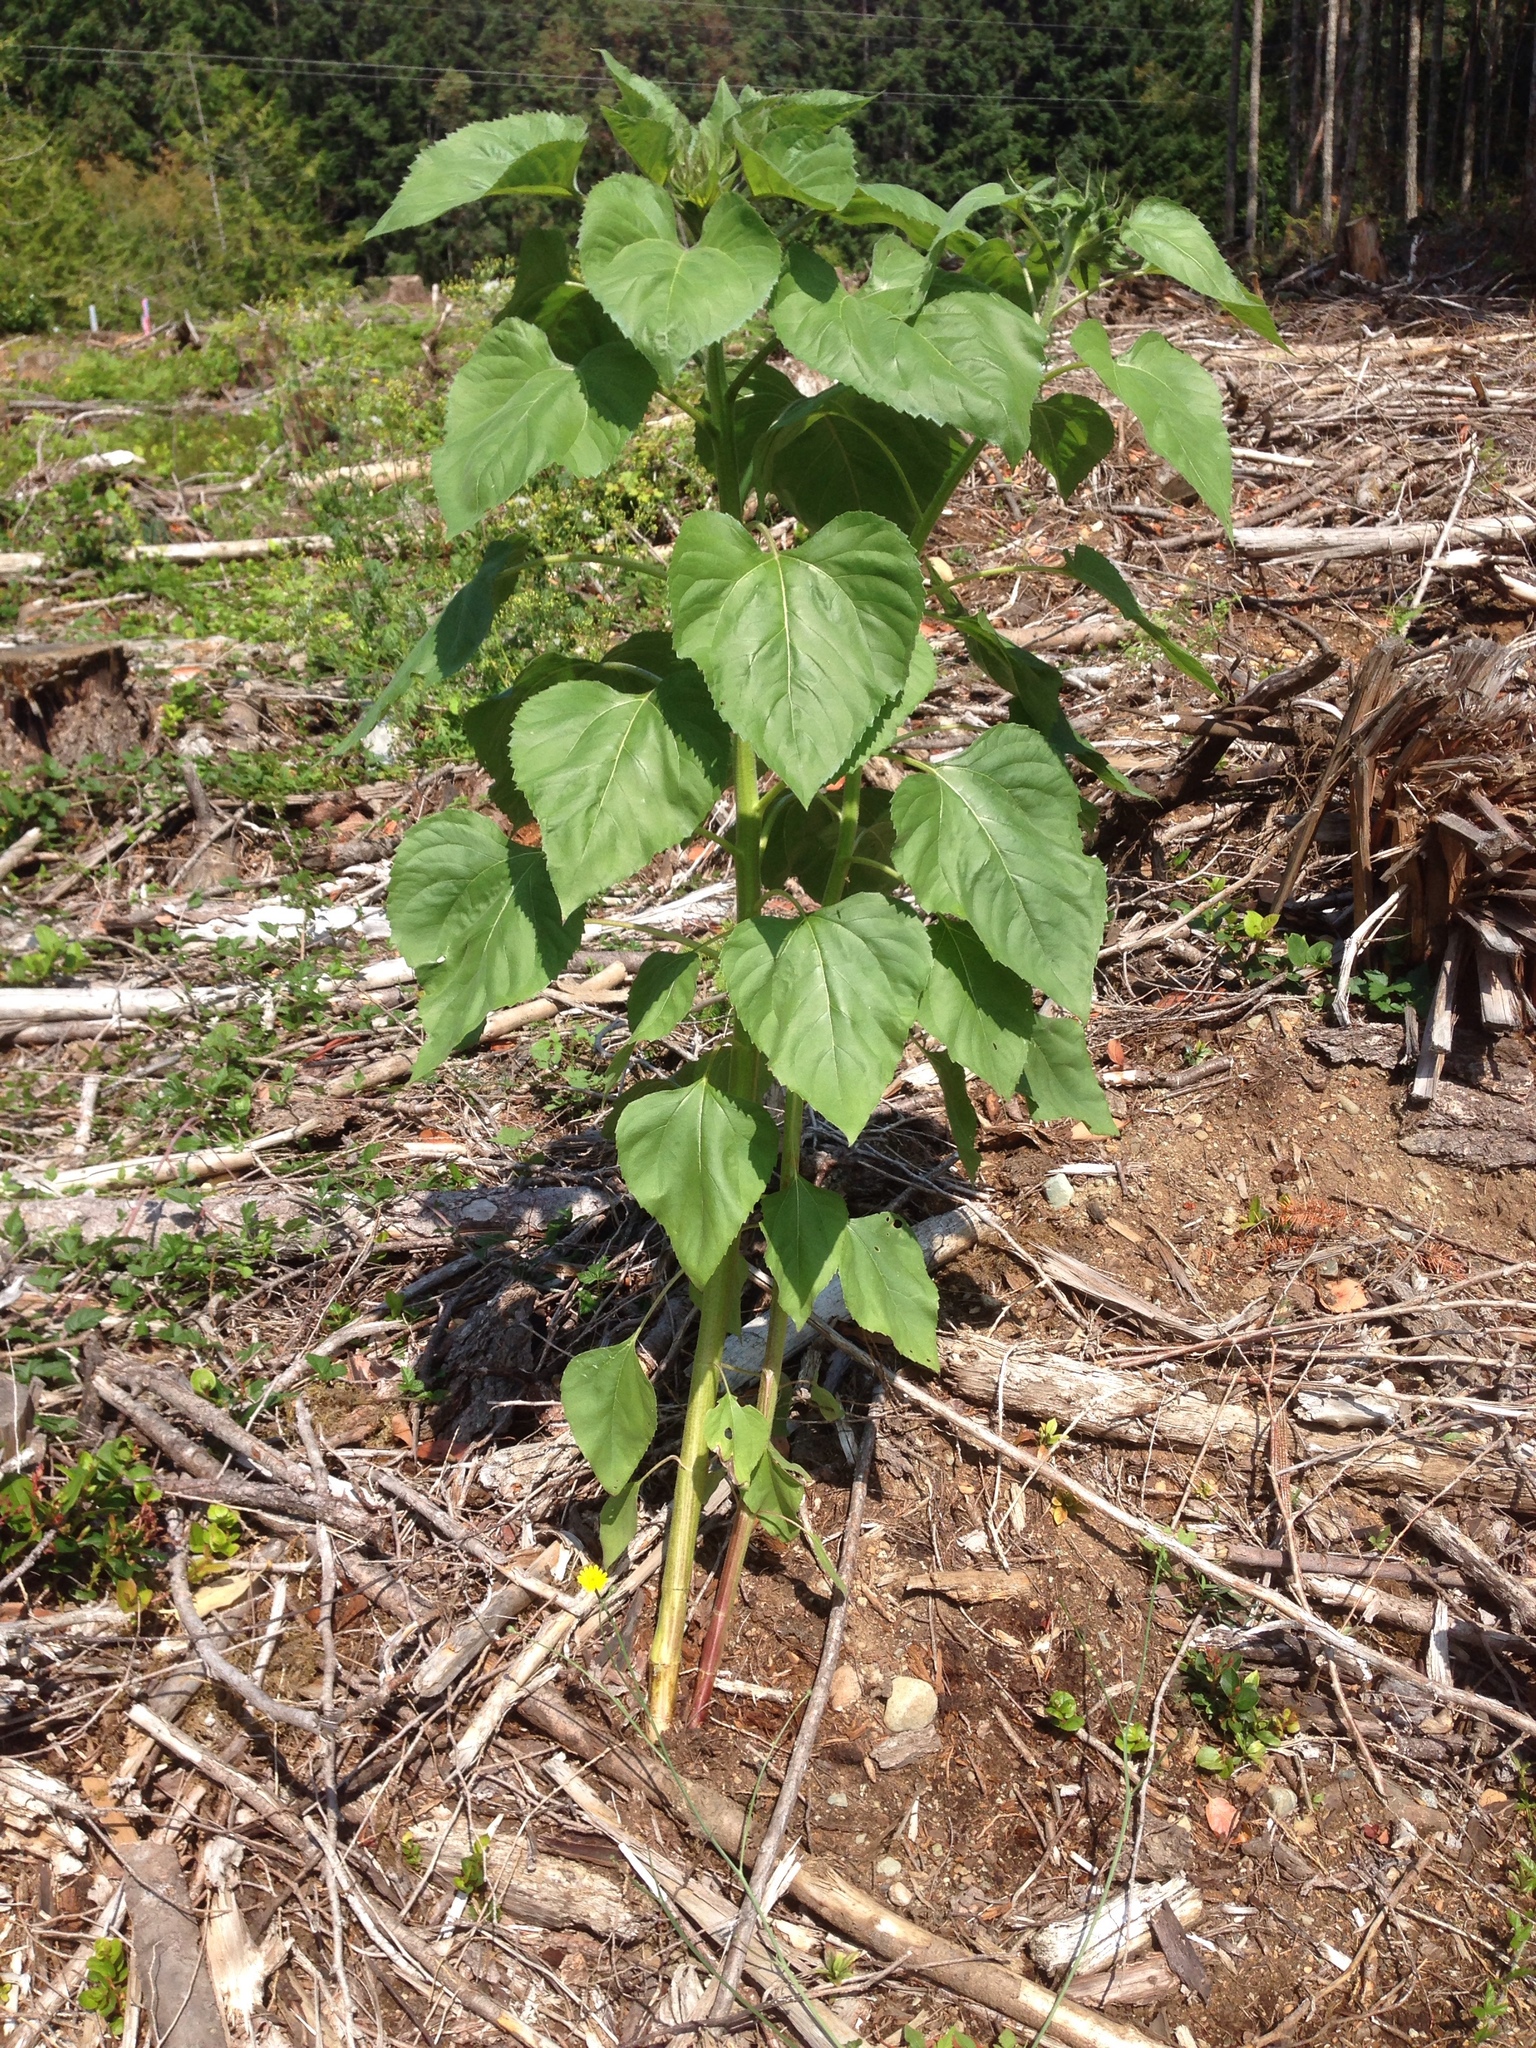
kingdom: Plantae
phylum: Tracheophyta
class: Magnoliopsida
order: Asterales
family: Asteraceae
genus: Helianthus
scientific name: Helianthus annuus
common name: Sunflower
